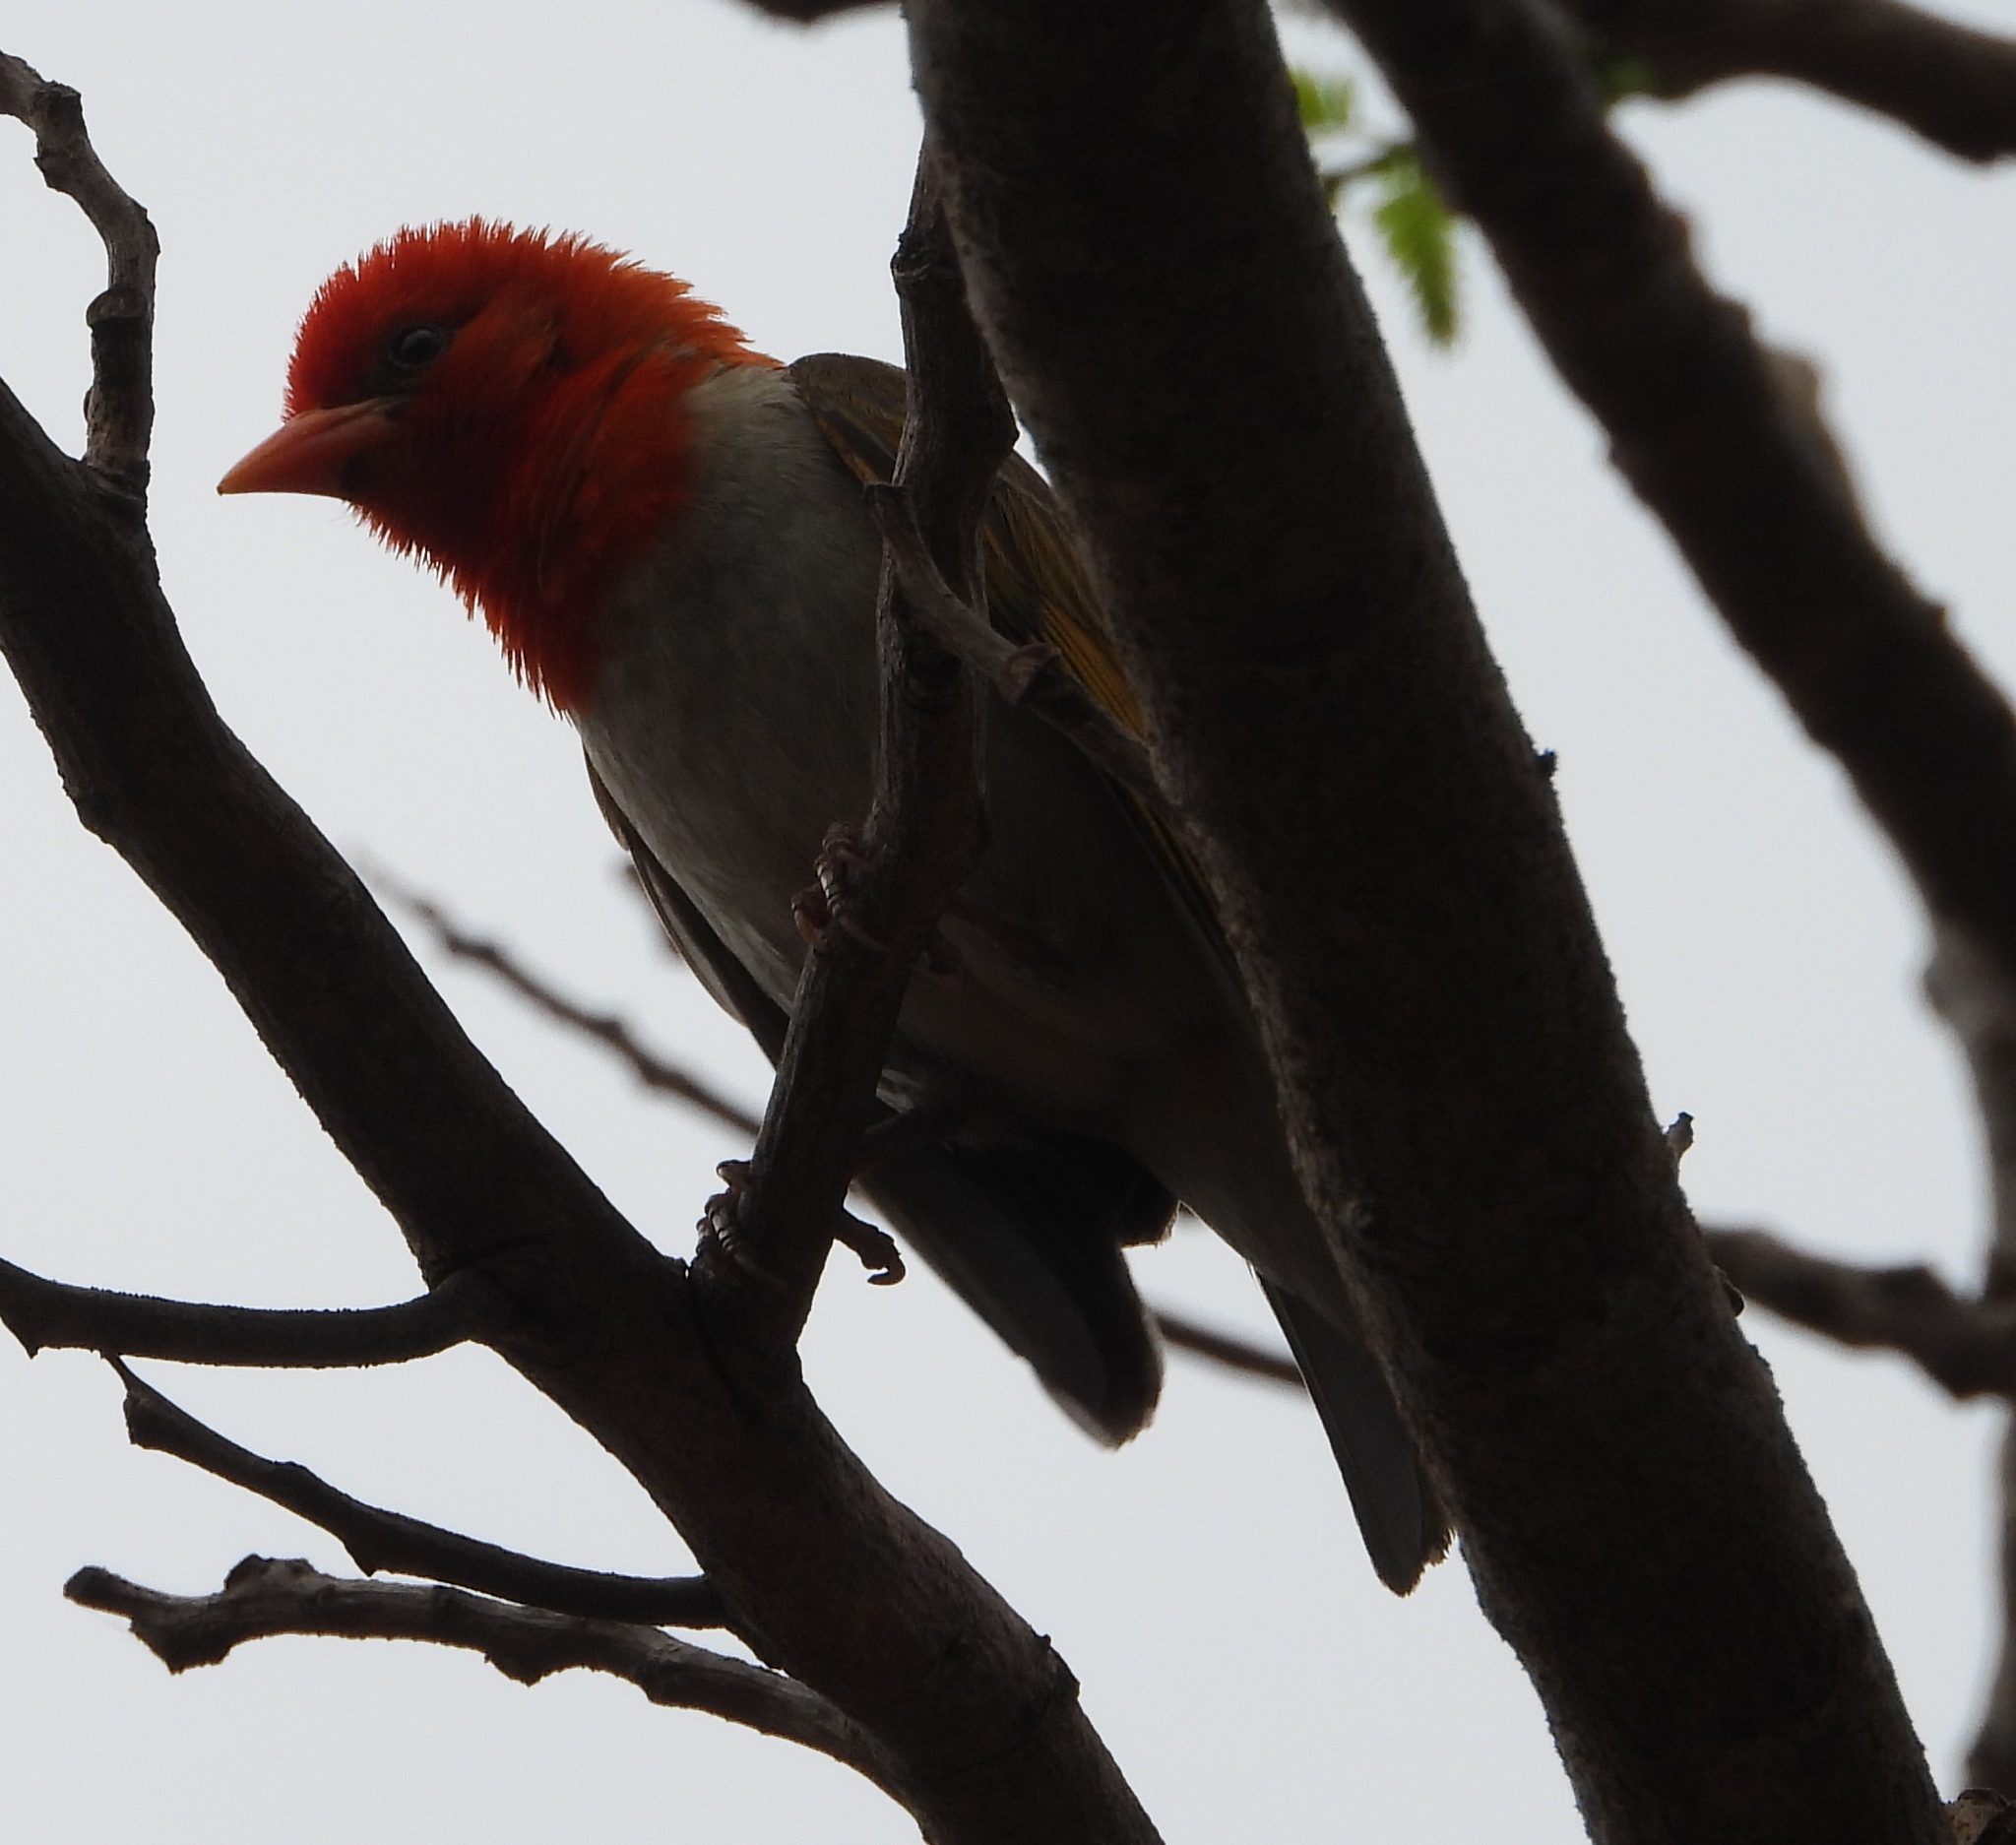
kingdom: Animalia
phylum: Chordata
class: Aves
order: Passeriformes
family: Ploceidae
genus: Anaplectes
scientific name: Anaplectes rubriceps
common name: Red-headed weaver
